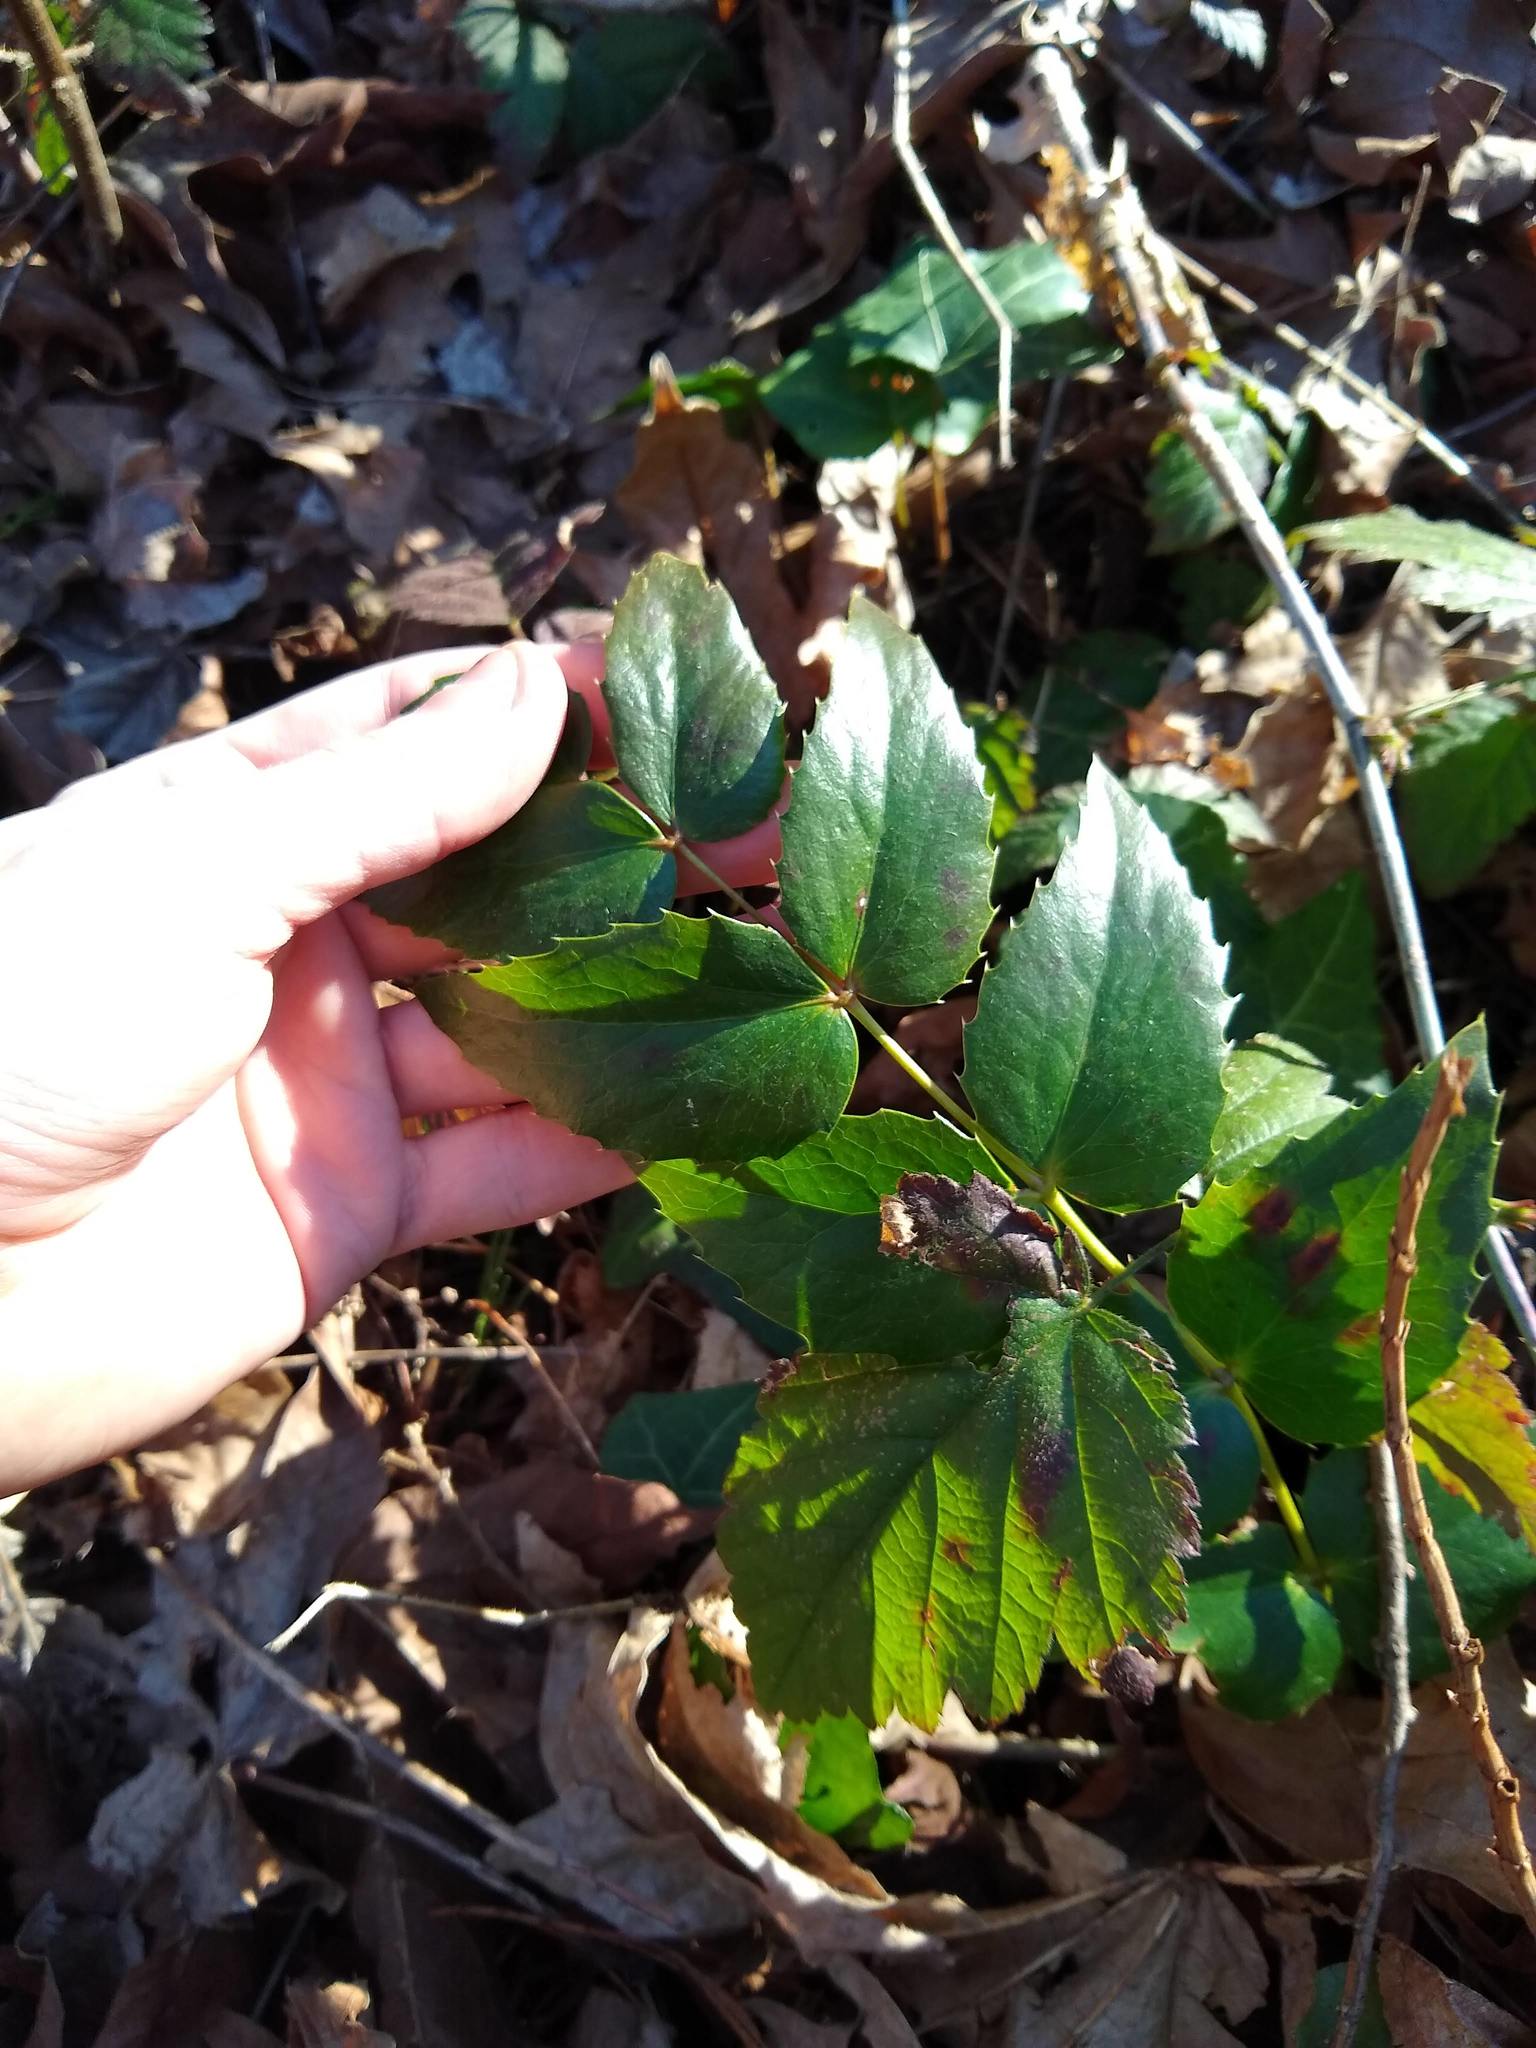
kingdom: Plantae
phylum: Tracheophyta
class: Magnoliopsida
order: Ranunculales
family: Berberidaceae
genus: Mahonia
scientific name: Mahonia nervosa
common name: Cascade oregon-grape
